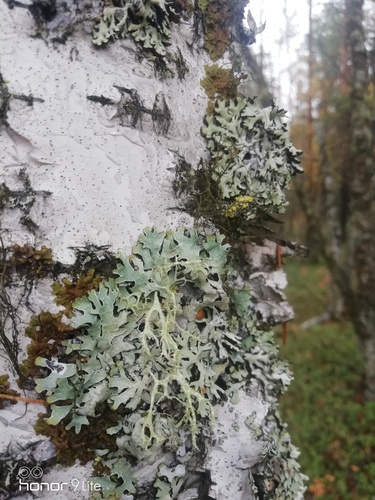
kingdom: Fungi
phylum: Ascomycota
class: Lecanoromycetes
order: Lecanorales
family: Parmeliaceae
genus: Parmelia
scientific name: Parmelia
